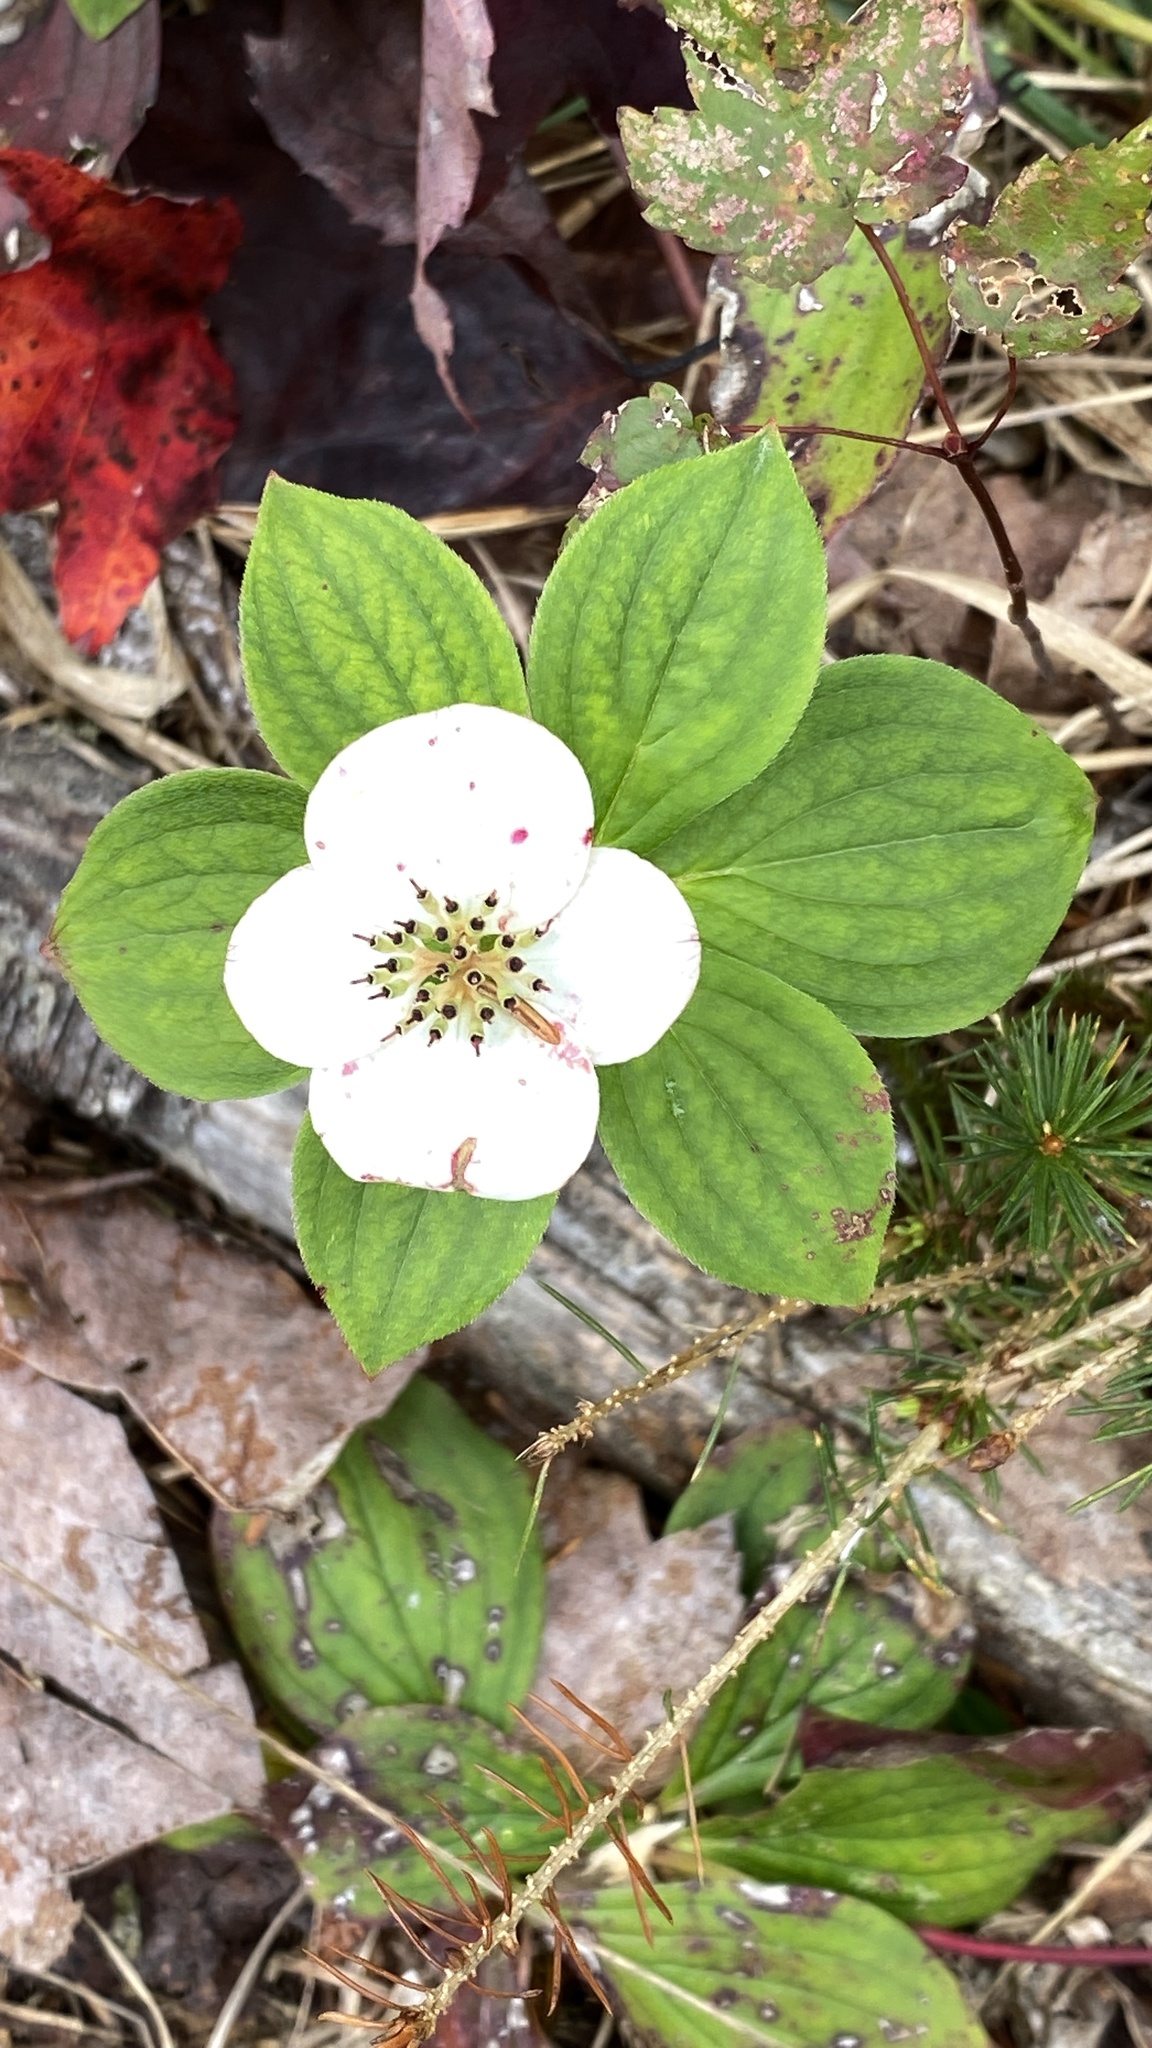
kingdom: Plantae
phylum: Tracheophyta
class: Magnoliopsida
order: Cornales
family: Cornaceae
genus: Cornus
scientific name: Cornus canadensis
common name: Creeping dogwood
